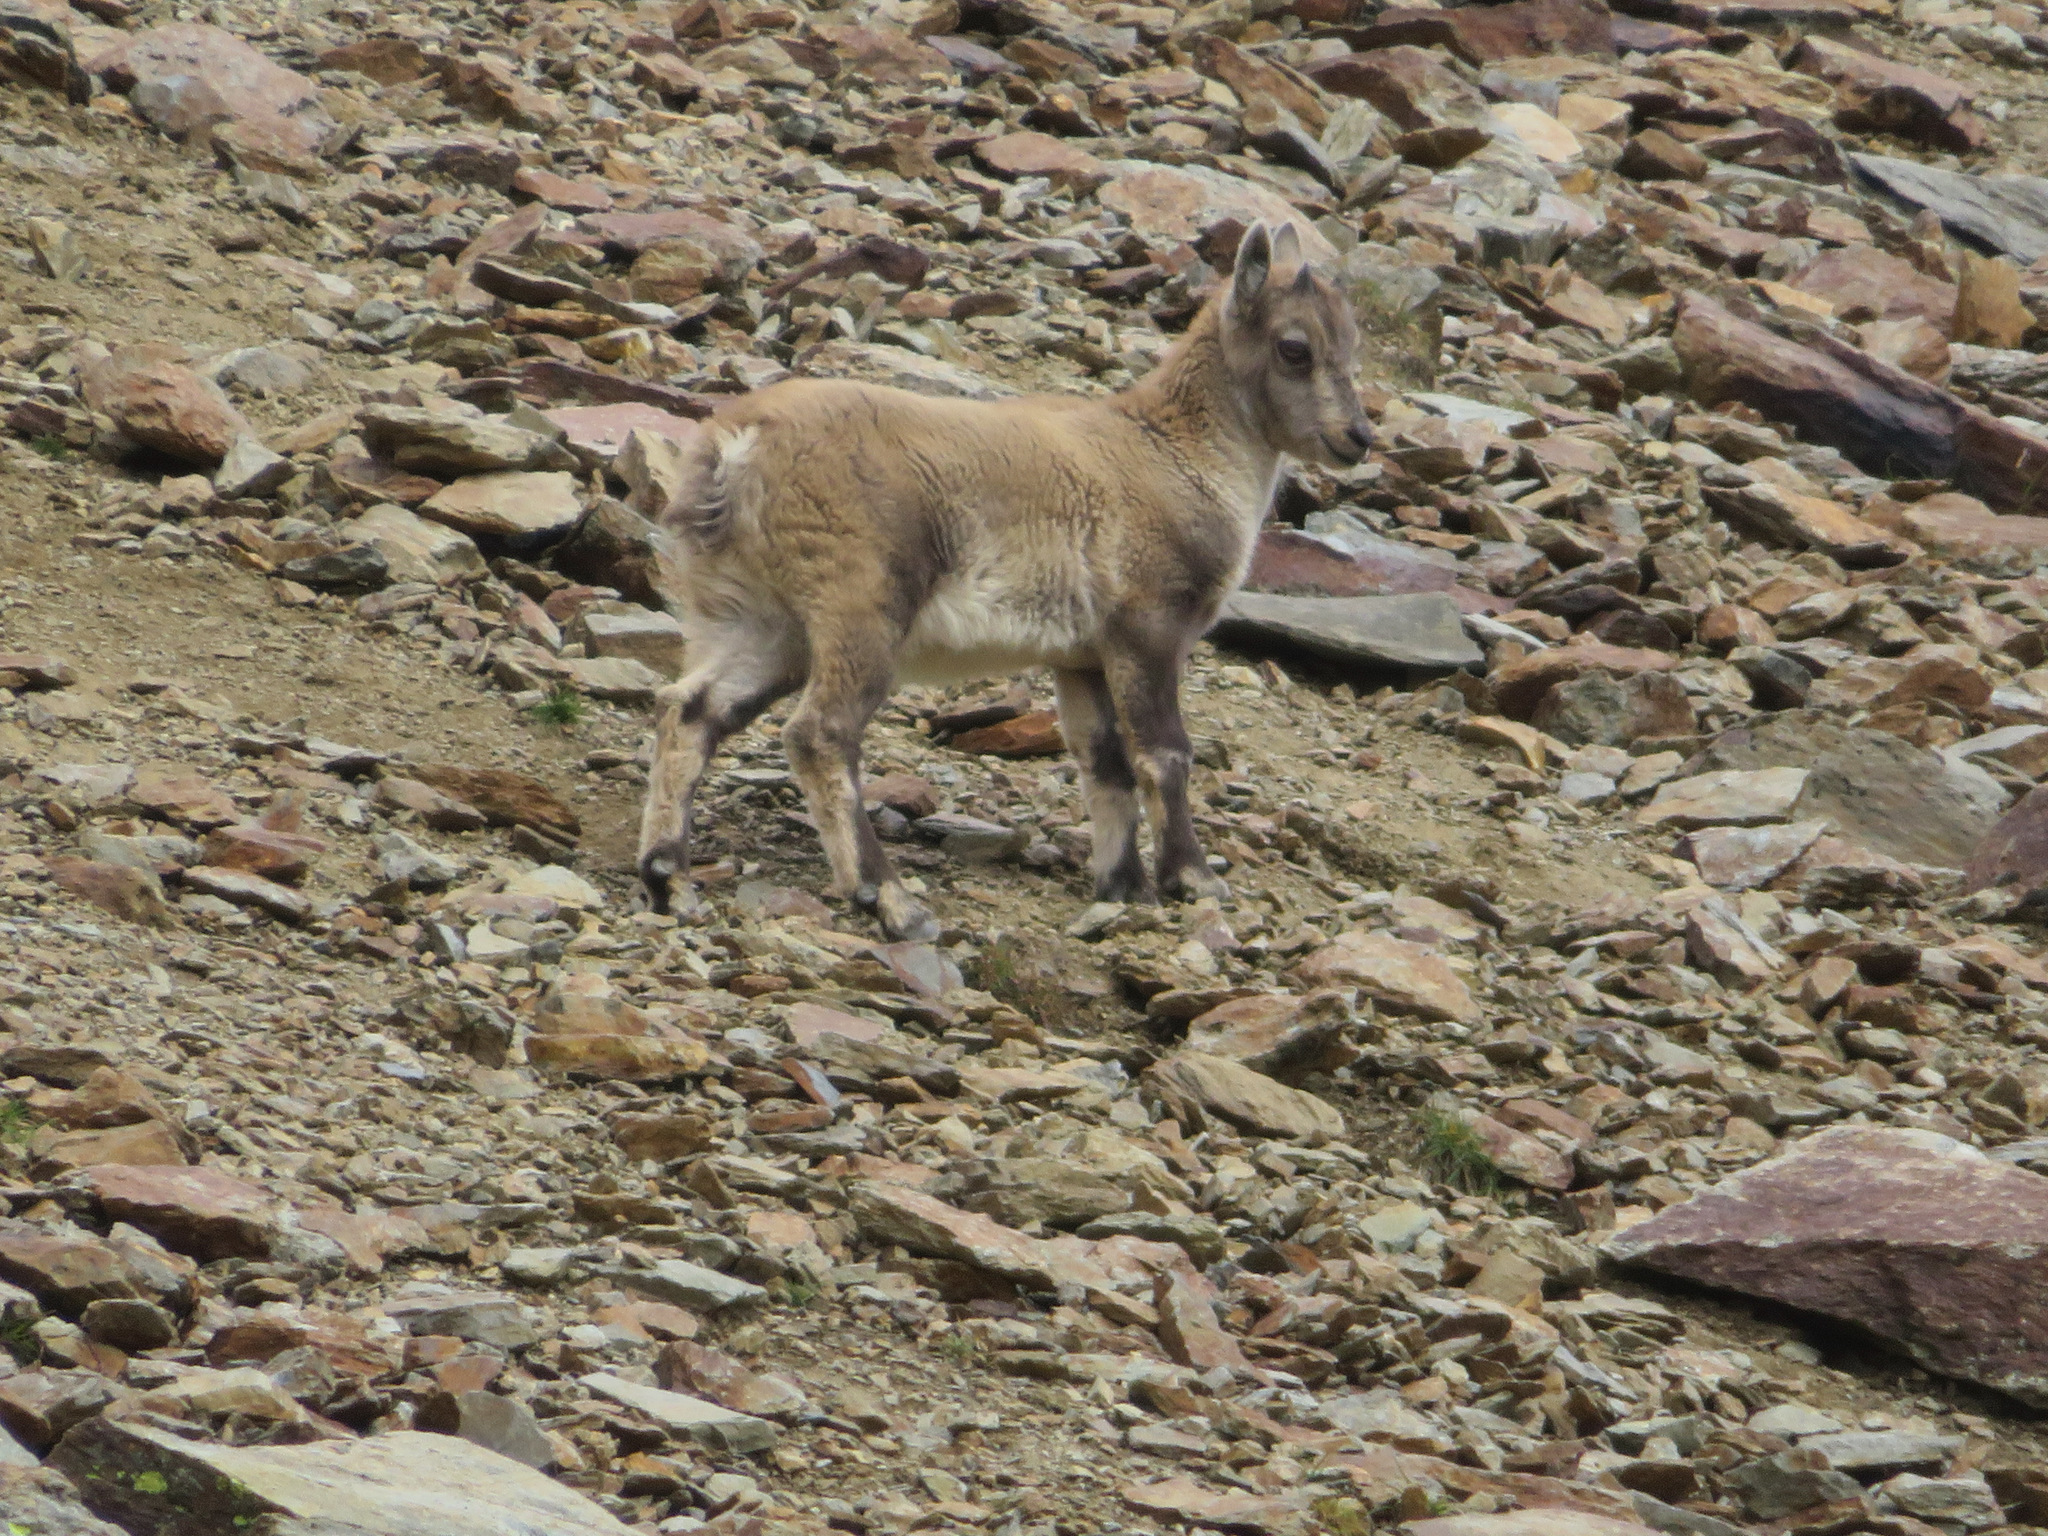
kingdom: Animalia
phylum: Chordata
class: Mammalia
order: Artiodactyla
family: Bovidae
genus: Capra
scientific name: Capra ibex
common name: Alpine ibex
